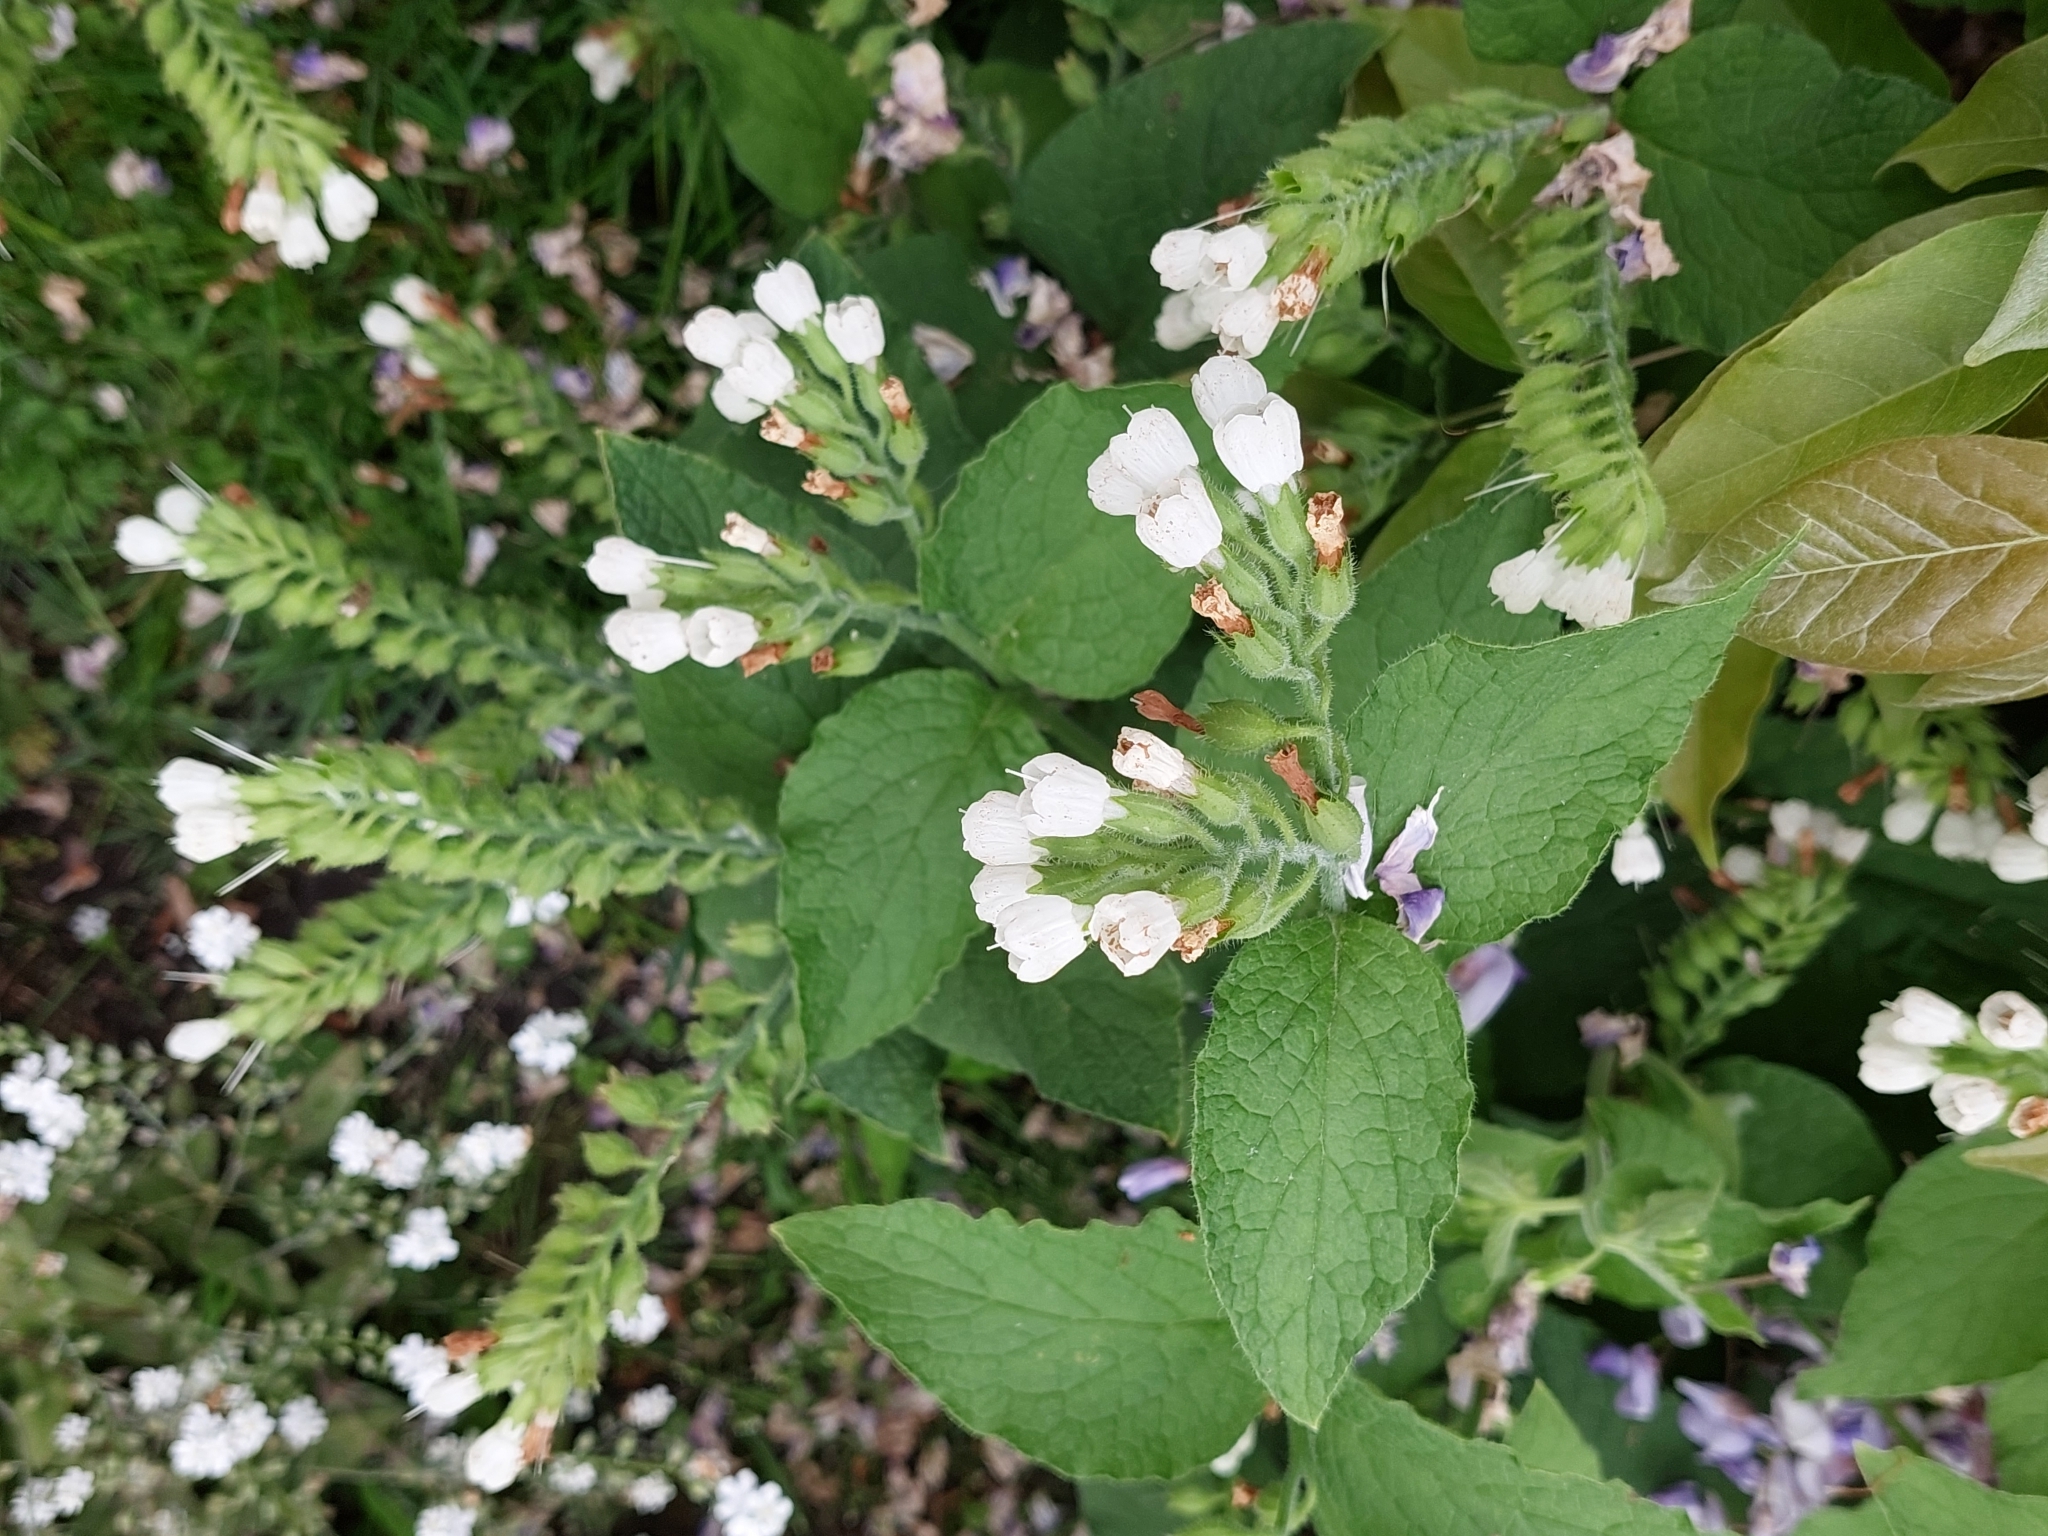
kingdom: Plantae
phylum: Tracheophyta
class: Magnoliopsida
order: Boraginales
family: Boraginaceae
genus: Symphytum
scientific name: Symphytum orientale
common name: White comfrey
